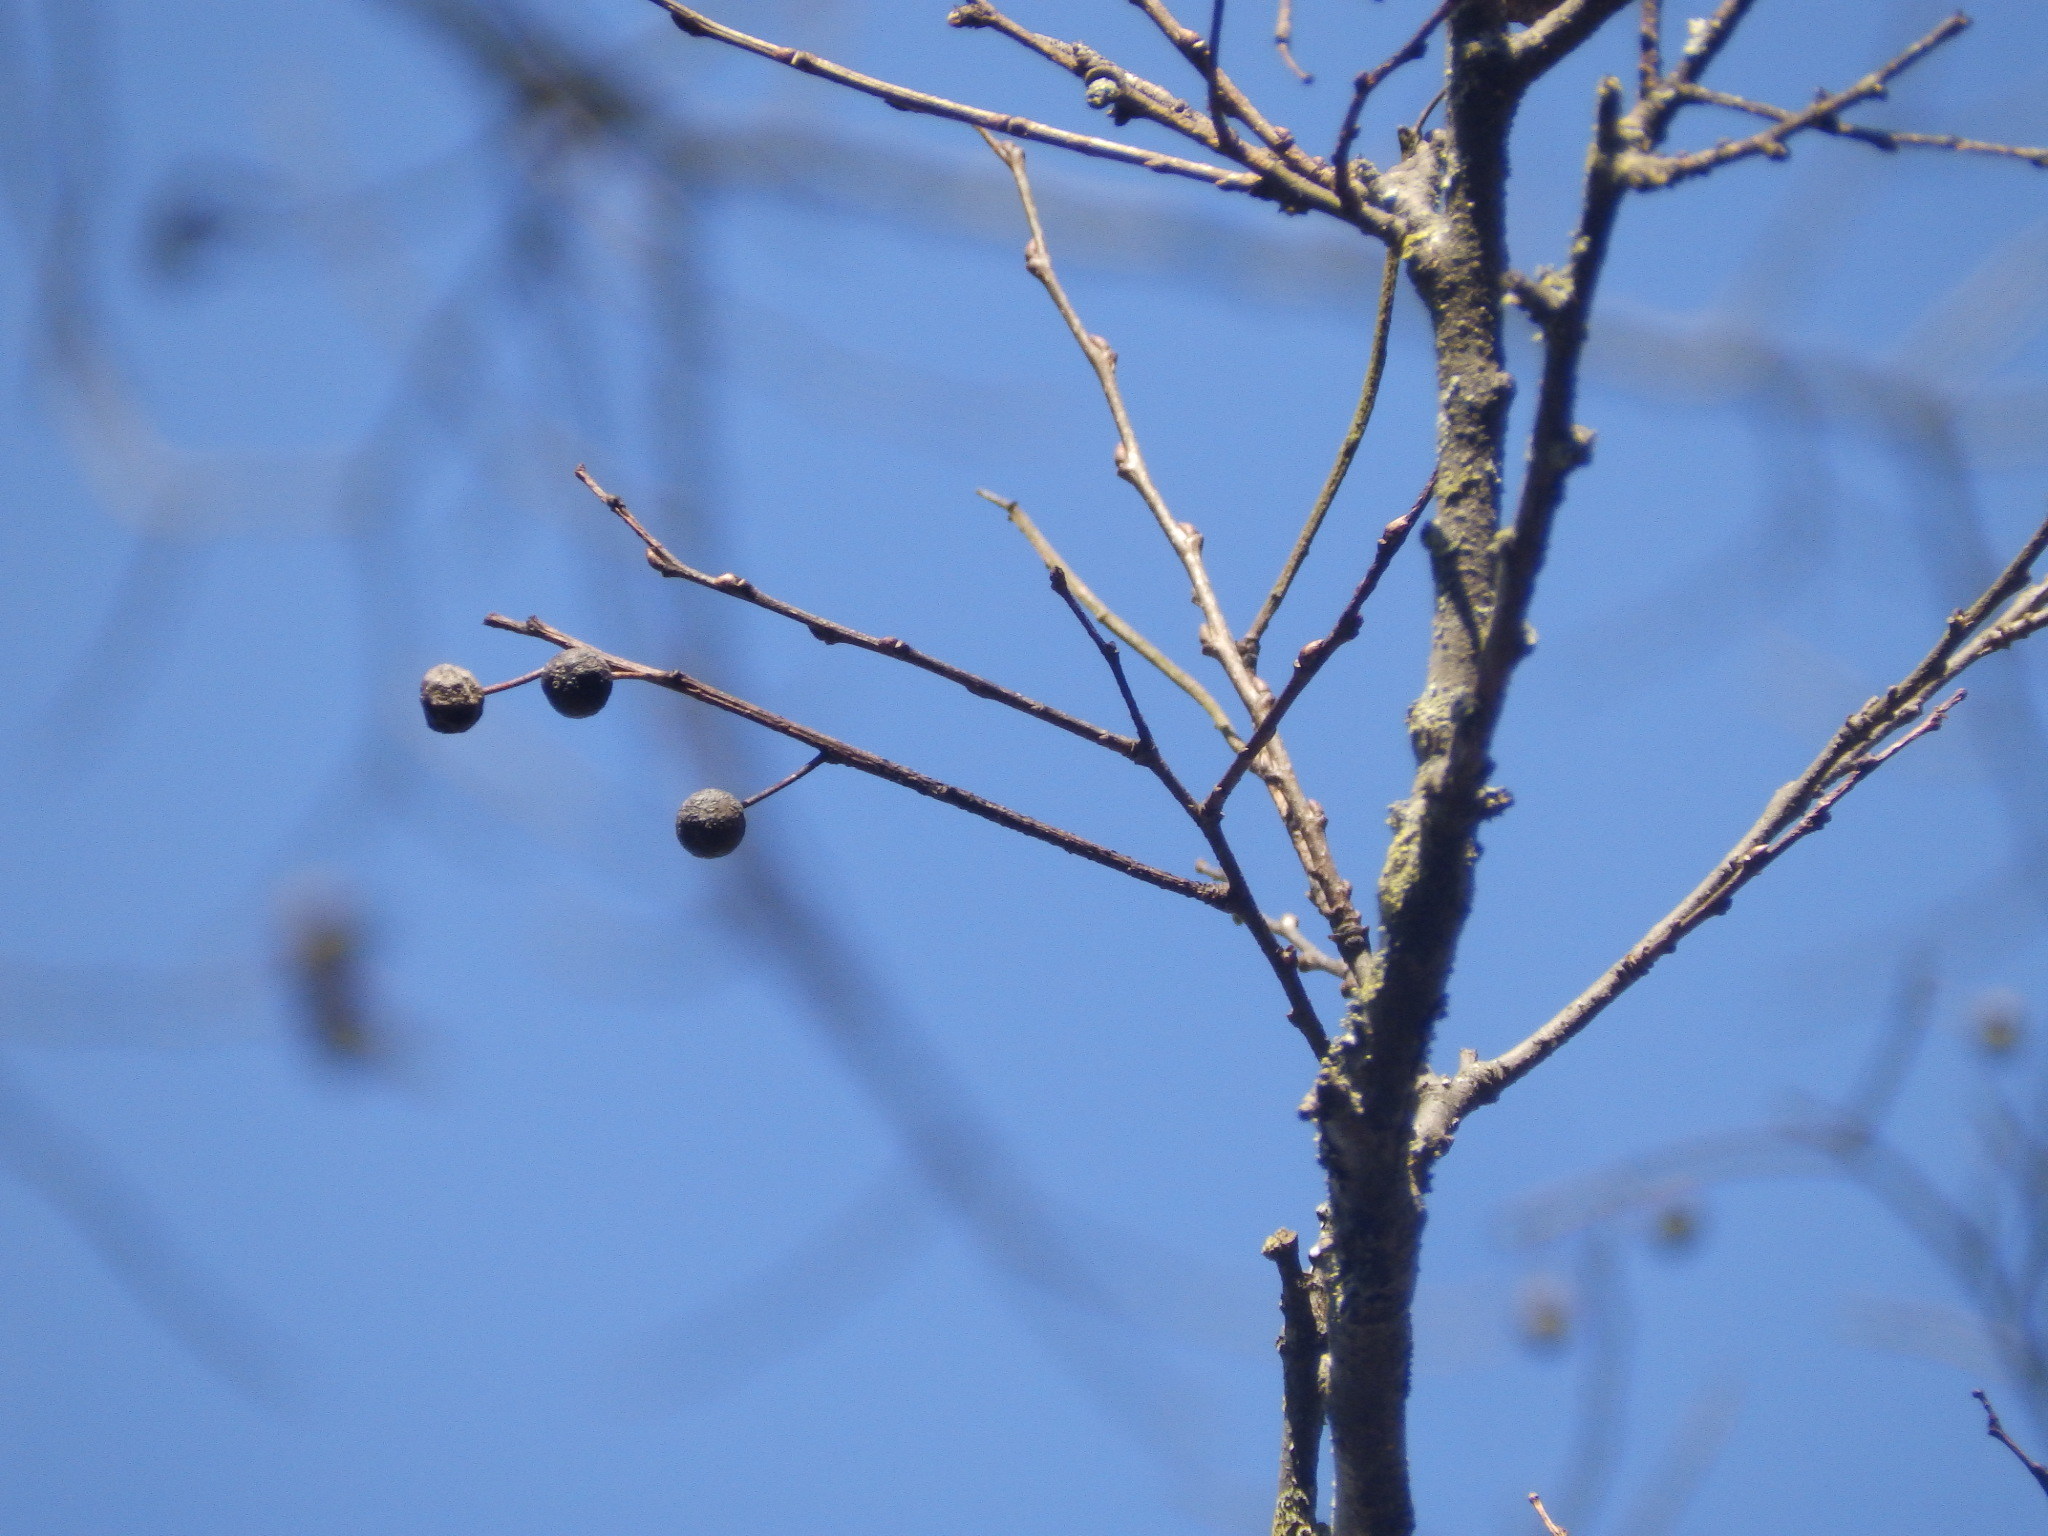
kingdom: Plantae
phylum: Tracheophyta
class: Magnoliopsida
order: Rosales
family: Cannabaceae
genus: Celtis
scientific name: Celtis laevigata
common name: Sugarberry
